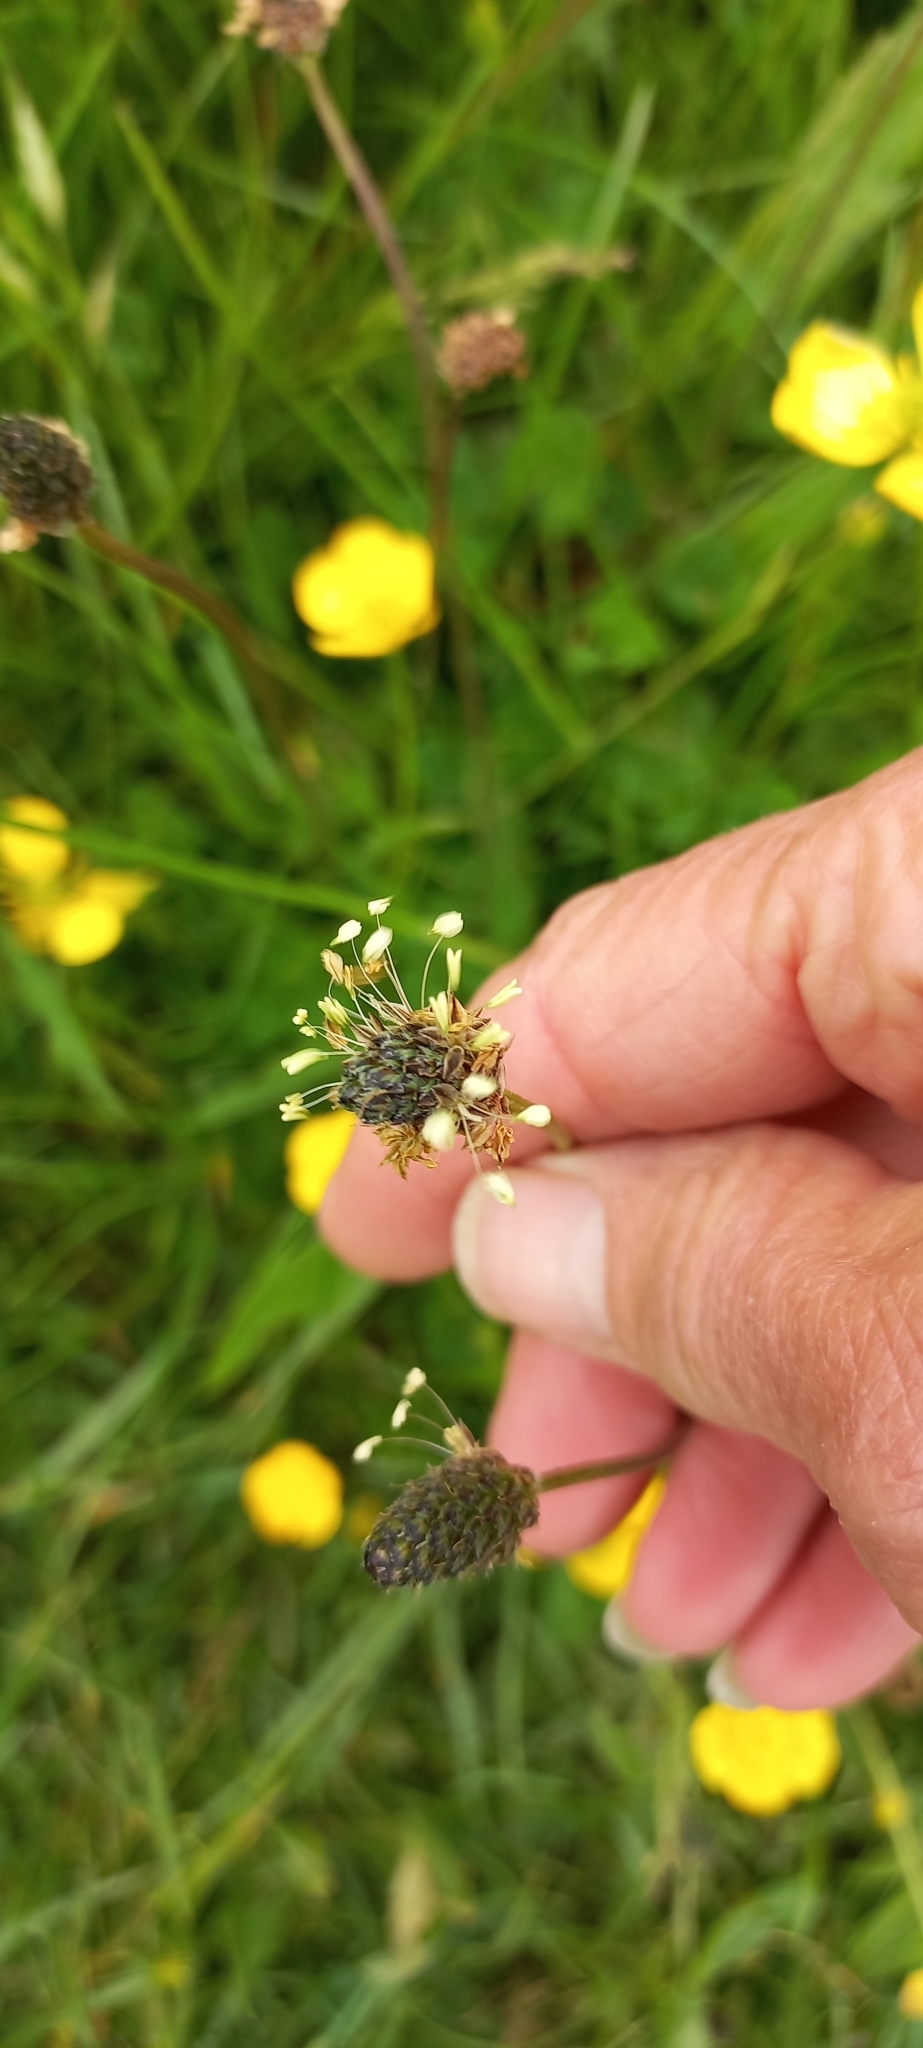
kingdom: Plantae
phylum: Tracheophyta
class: Magnoliopsida
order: Lamiales
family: Plantaginaceae
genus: Plantago
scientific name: Plantago lanceolata
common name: Ribwort plantain
